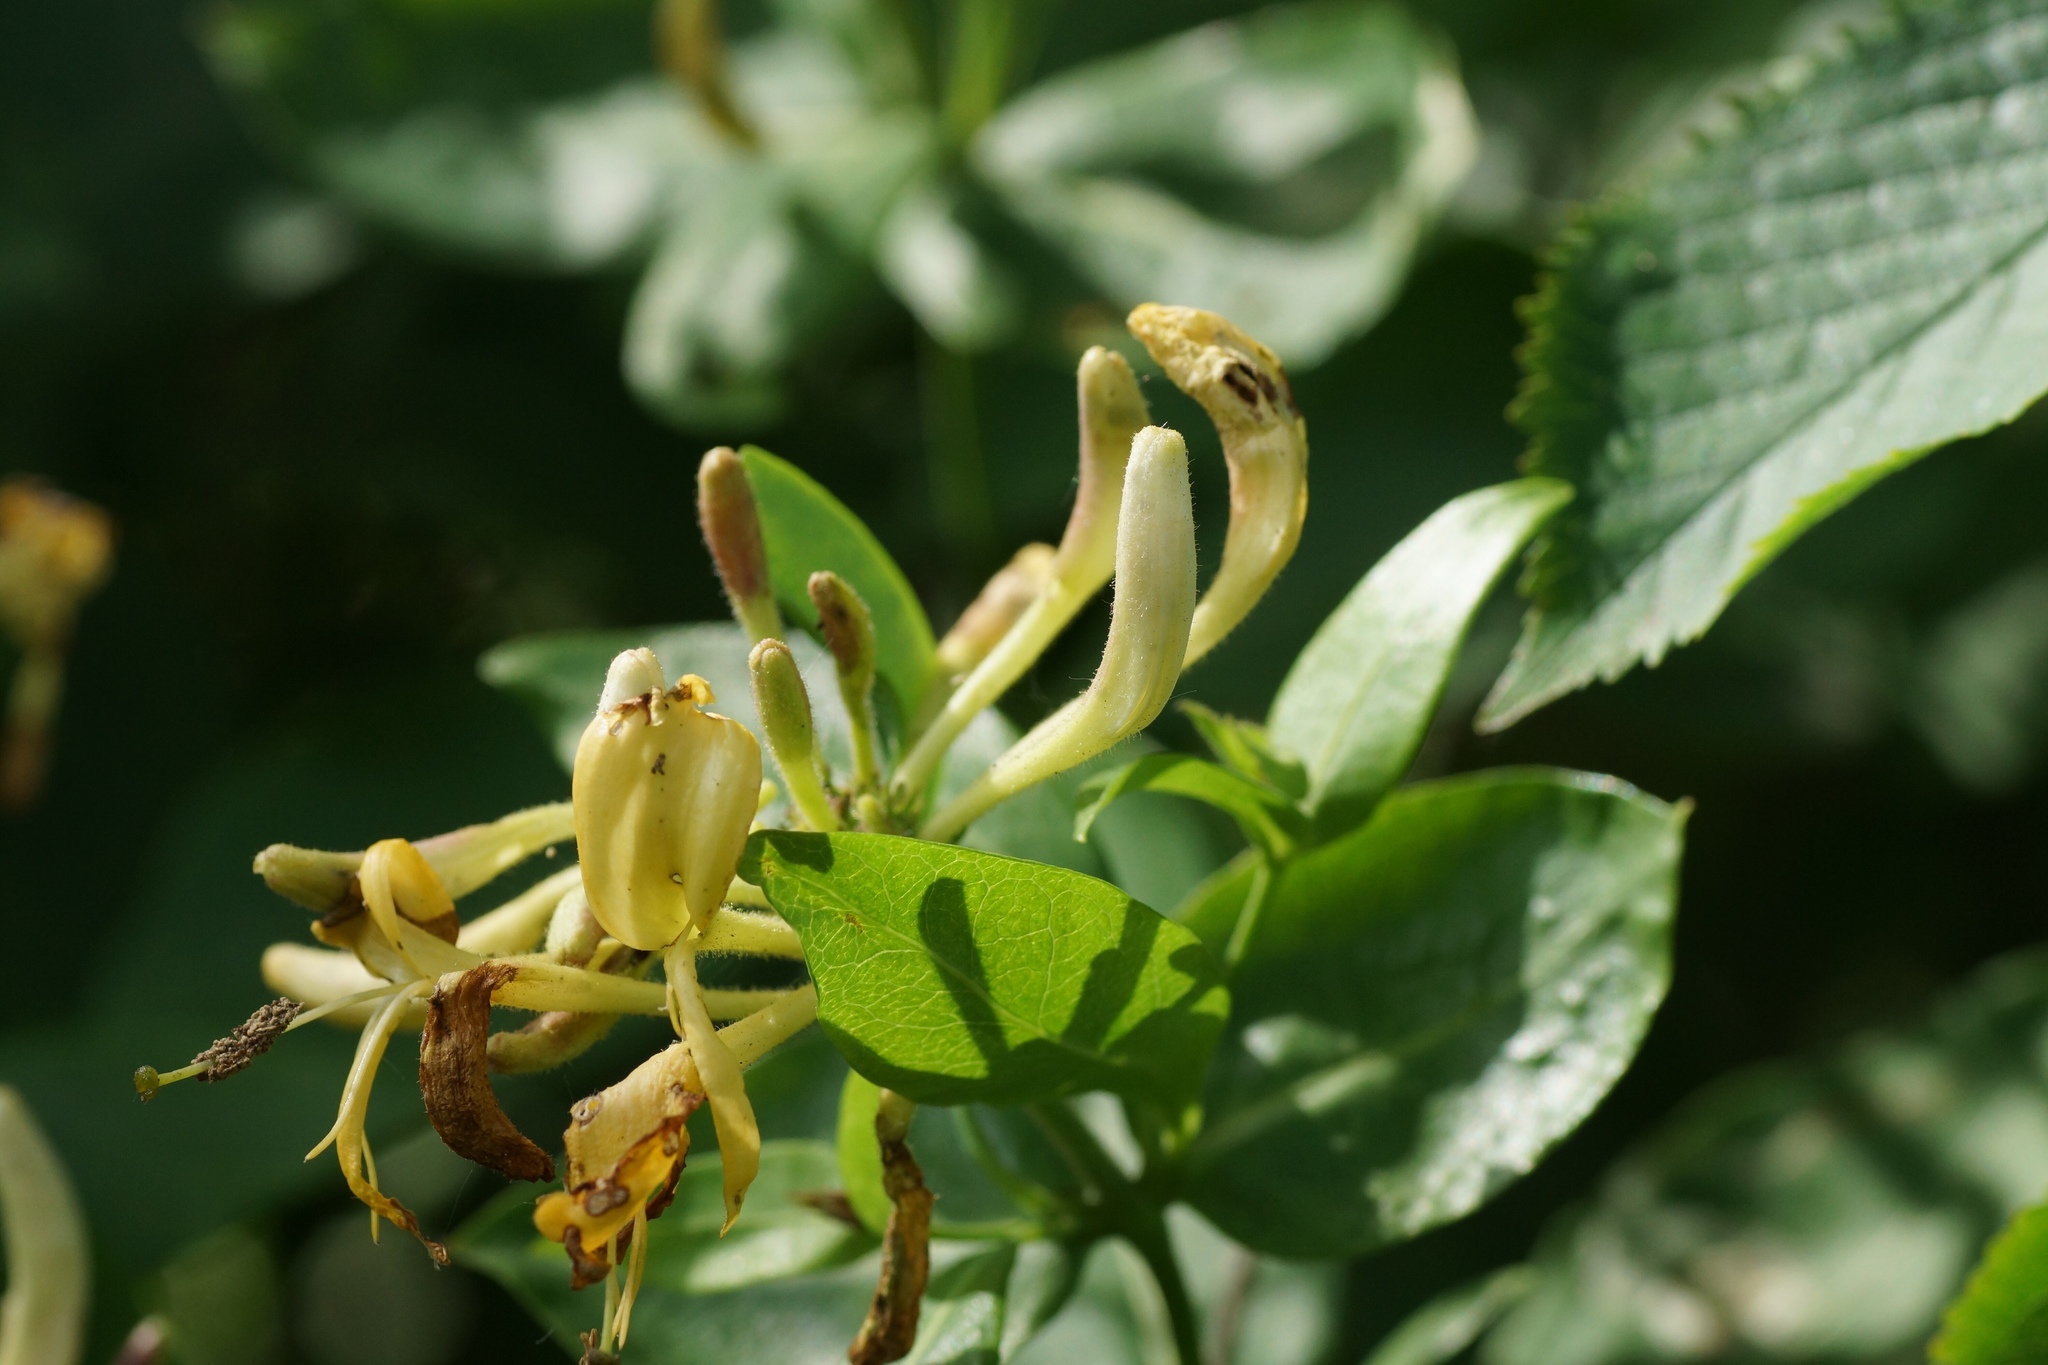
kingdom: Plantae
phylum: Tracheophyta
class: Magnoliopsida
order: Dipsacales
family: Caprifoliaceae
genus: Lonicera
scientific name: Lonicera periclymenum
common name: European honeysuckle
